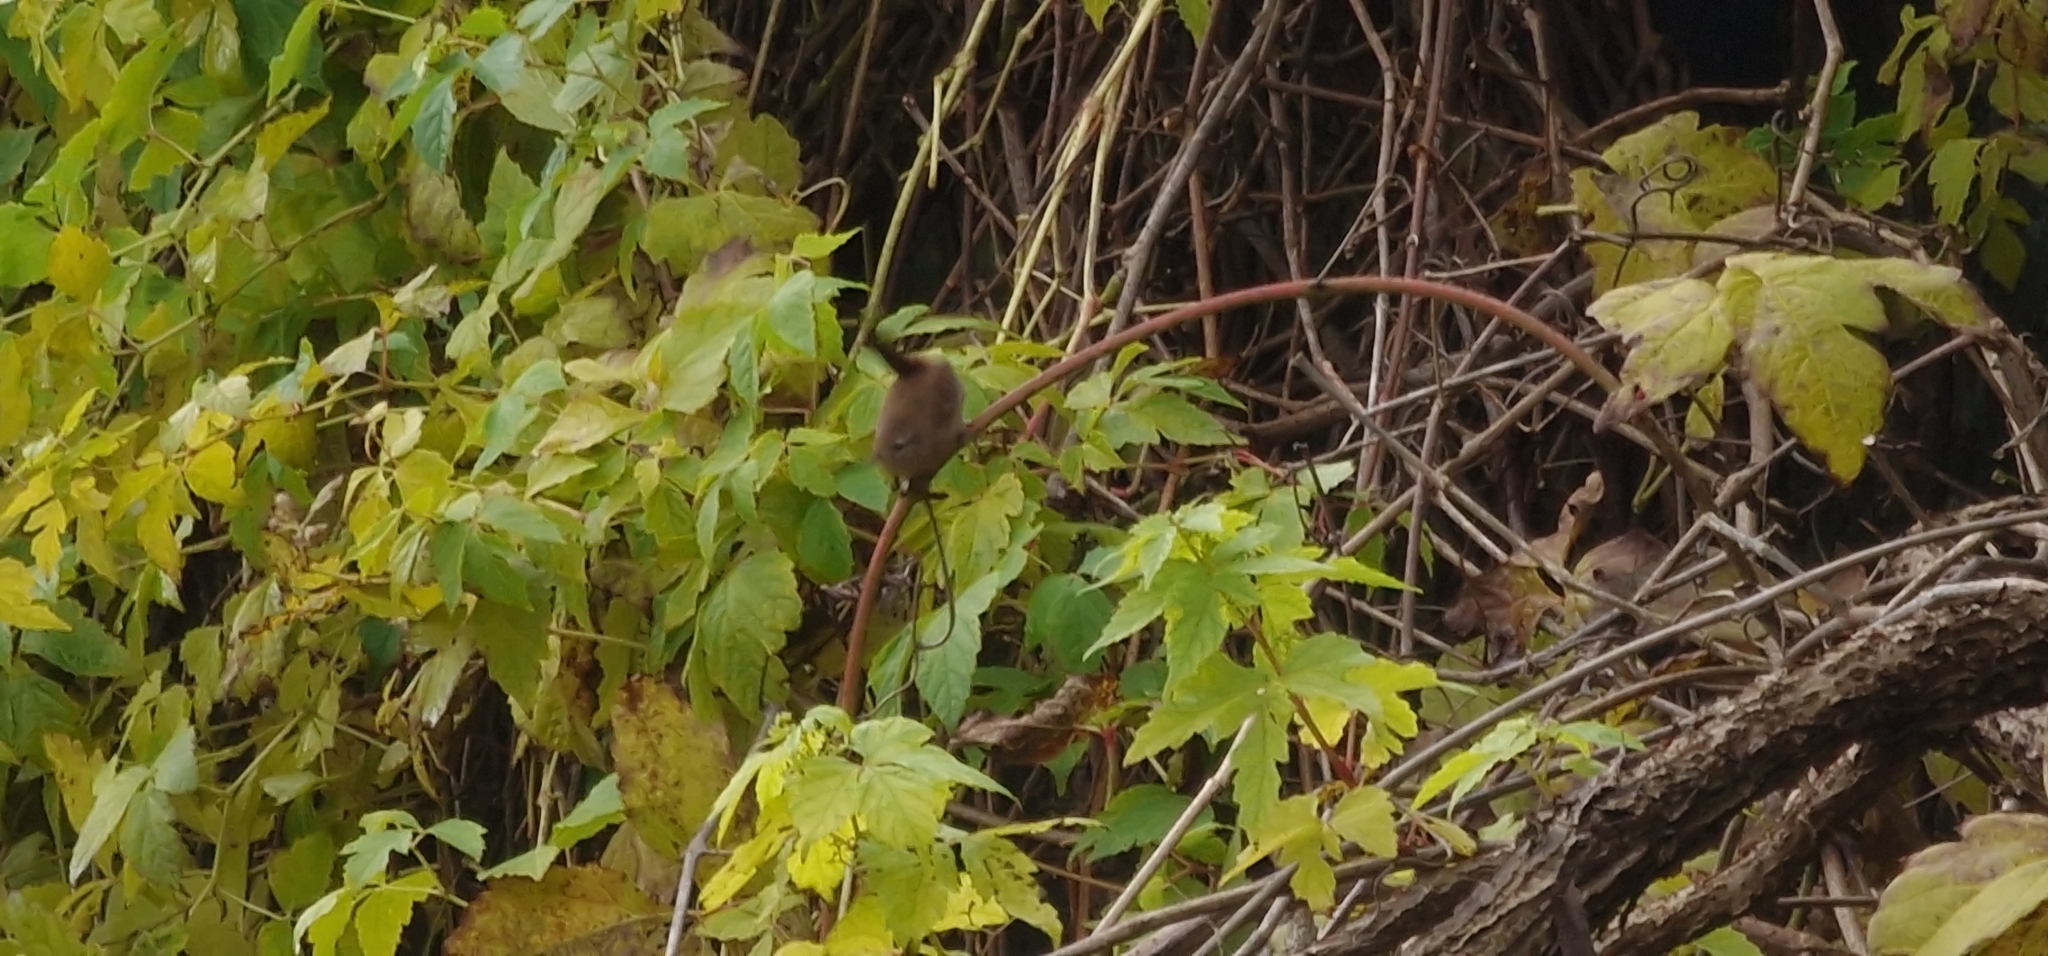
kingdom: Animalia
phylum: Chordata
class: Aves
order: Passeriformes
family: Troglodytidae
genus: Troglodytes
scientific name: Troglodytes troglodytes
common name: Eurasian wren
